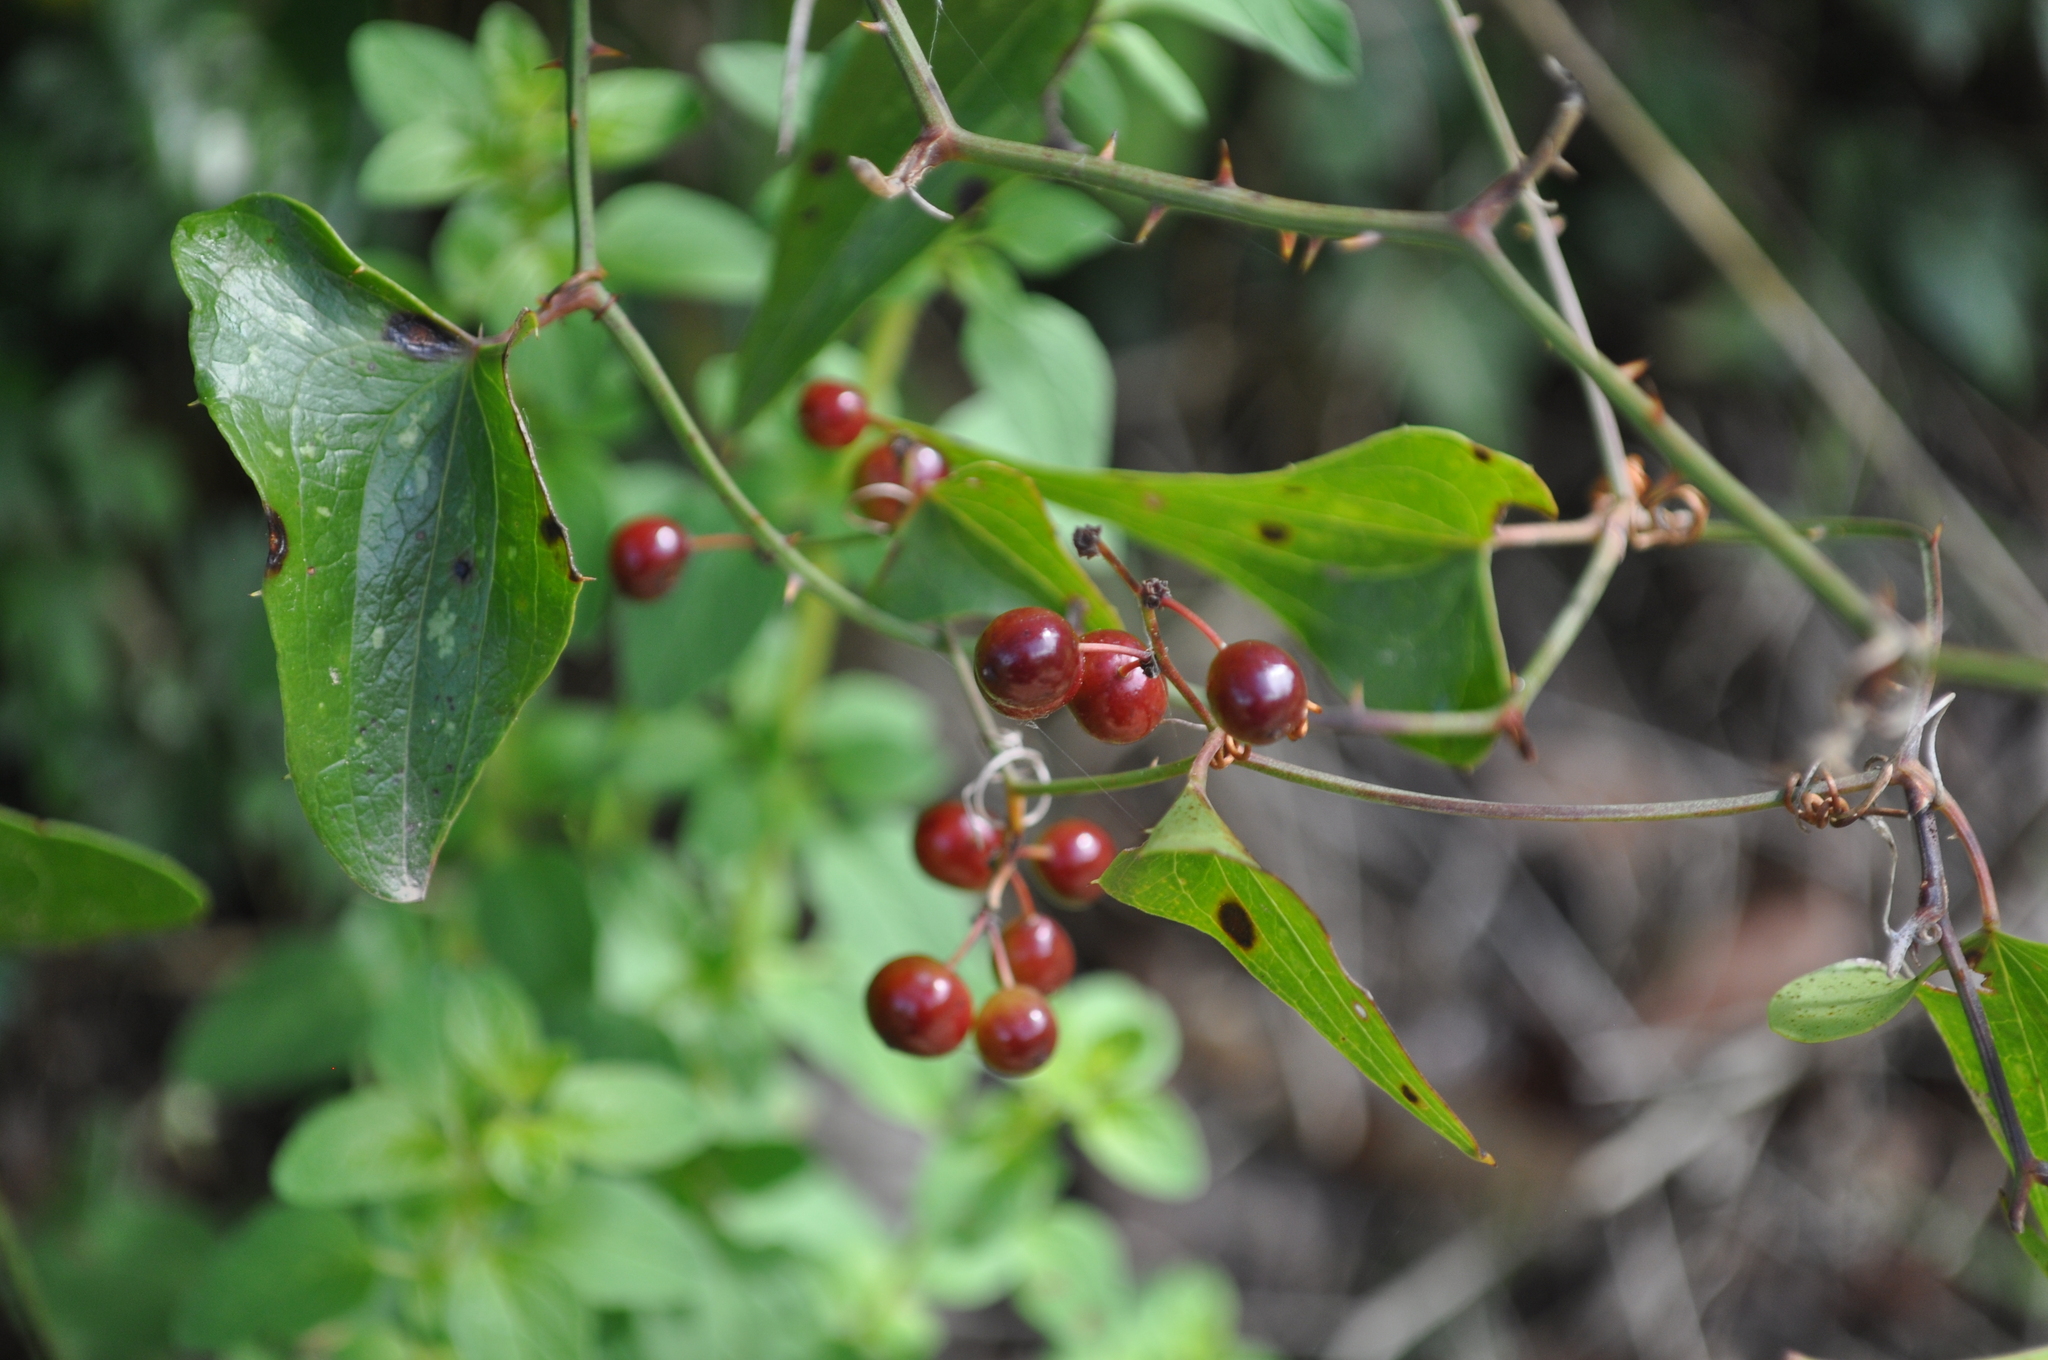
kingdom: Plantae
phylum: Tracheophyta
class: Liliopsida
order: Liliales
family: Smilacaceae
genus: Smilax
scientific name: Smilax aspera
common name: Common smilax
